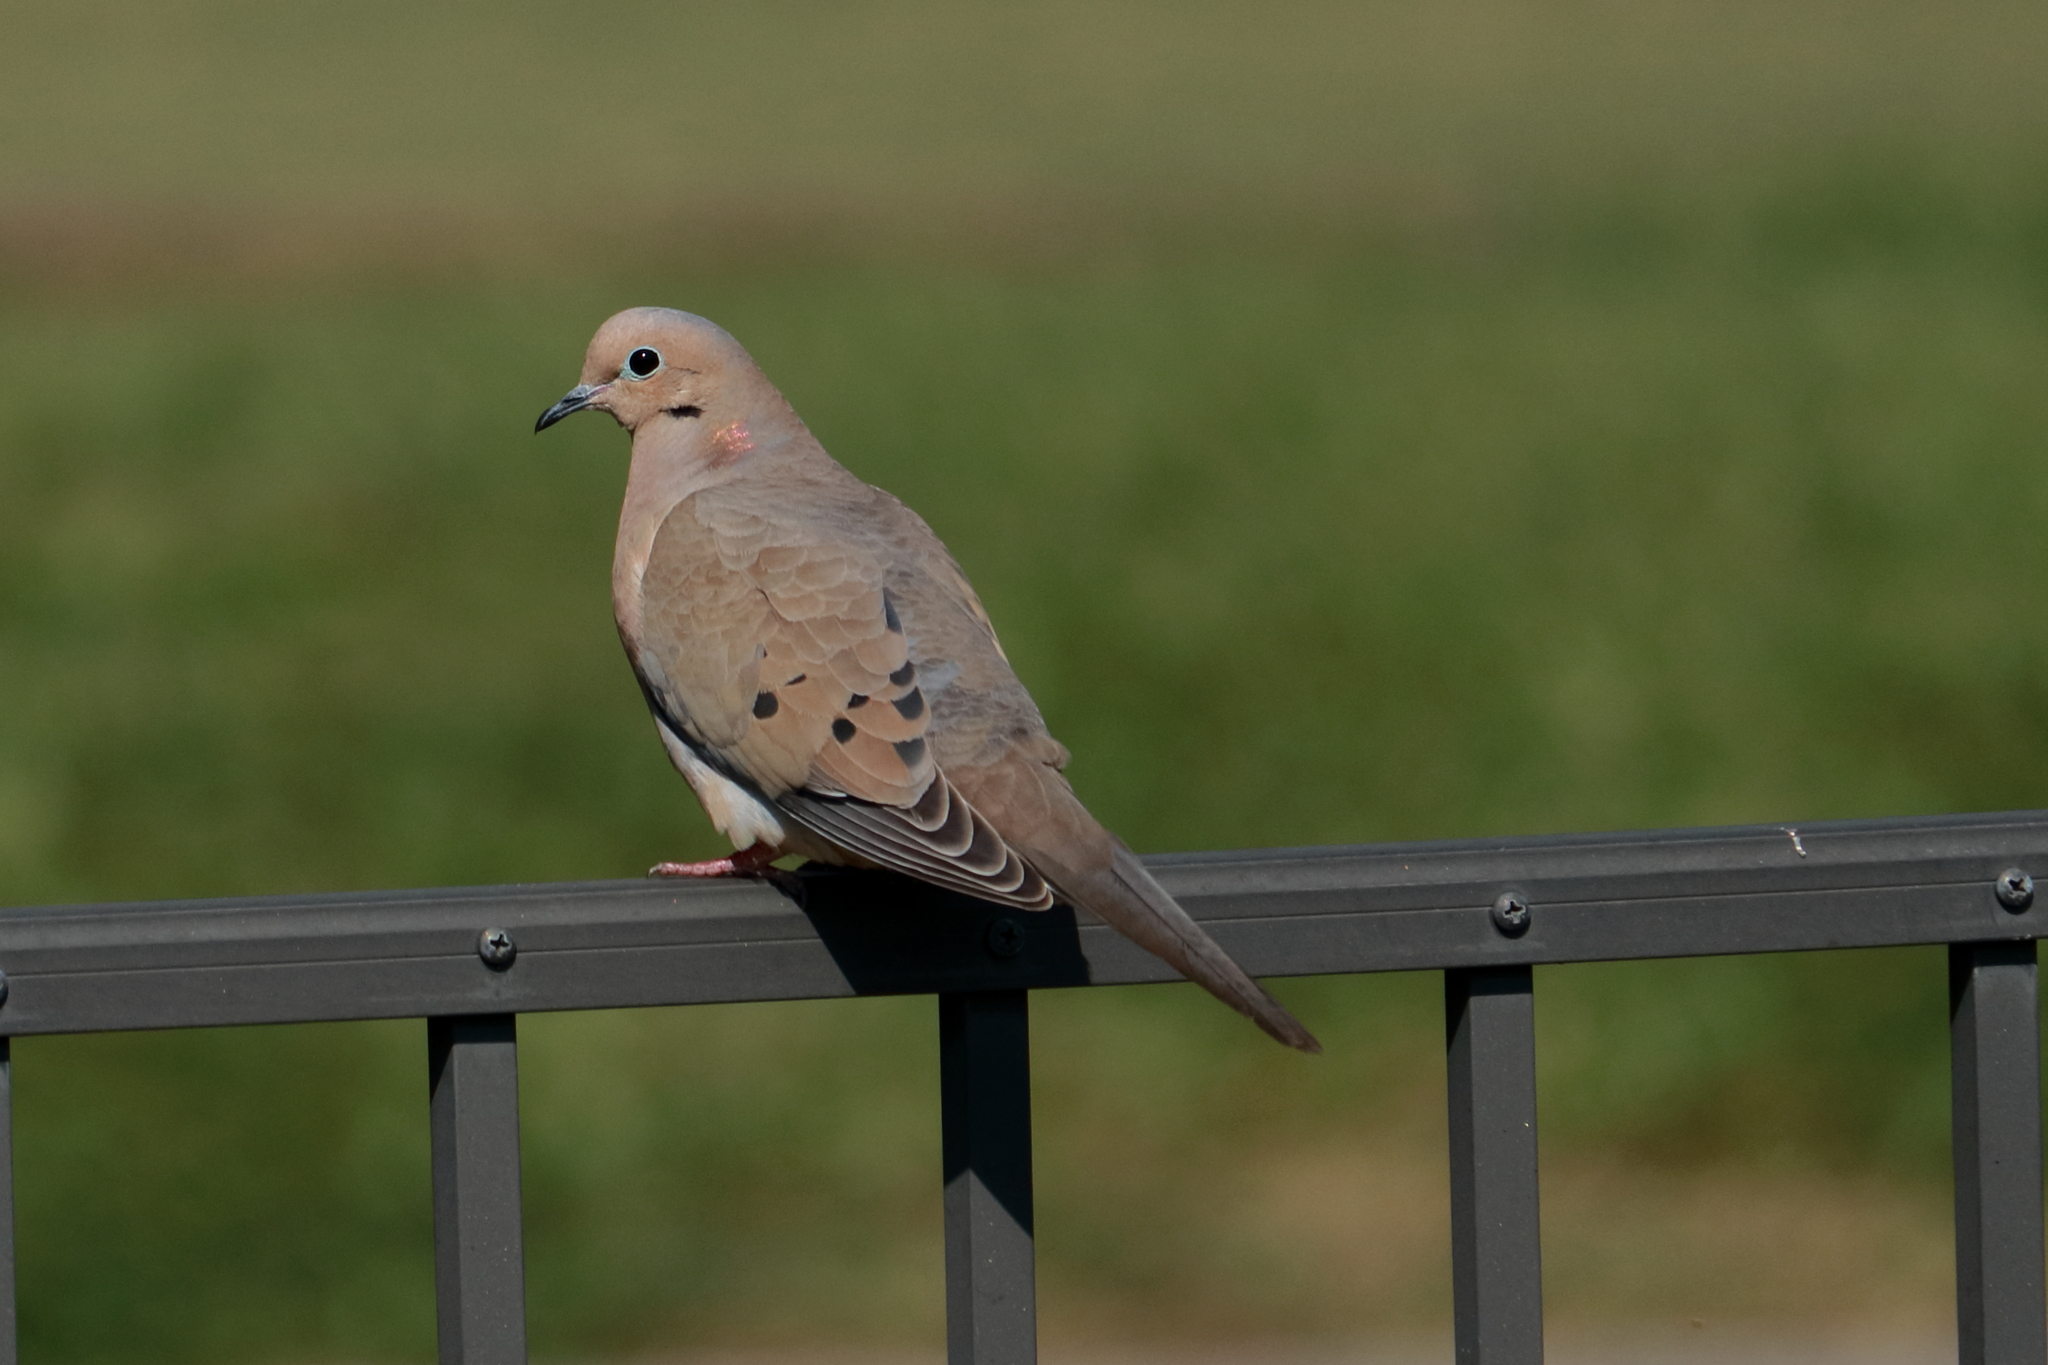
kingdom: Animalia
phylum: Chordata
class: Aves
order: Columbiformes
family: Columbidae
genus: Zenaida
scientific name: Zenaida macroura
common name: Mourning dove
